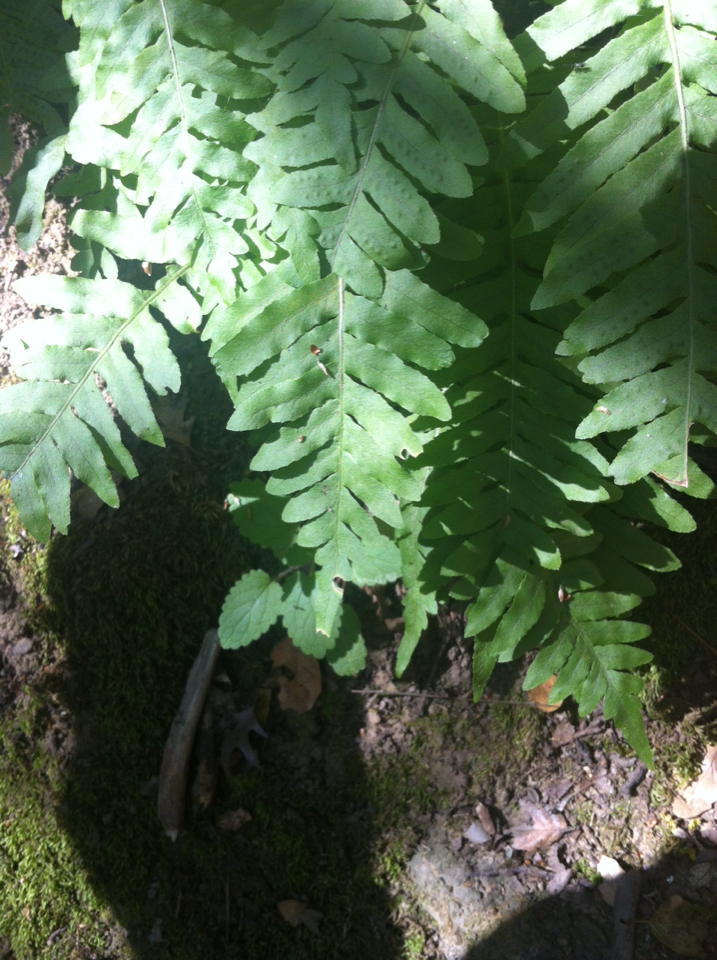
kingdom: Plantae
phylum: Tracheophyta
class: Polypodiopsida
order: Polypodiales
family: Polypodiaceae
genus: Polypodium
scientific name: Polypodium californicum
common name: California polypody
